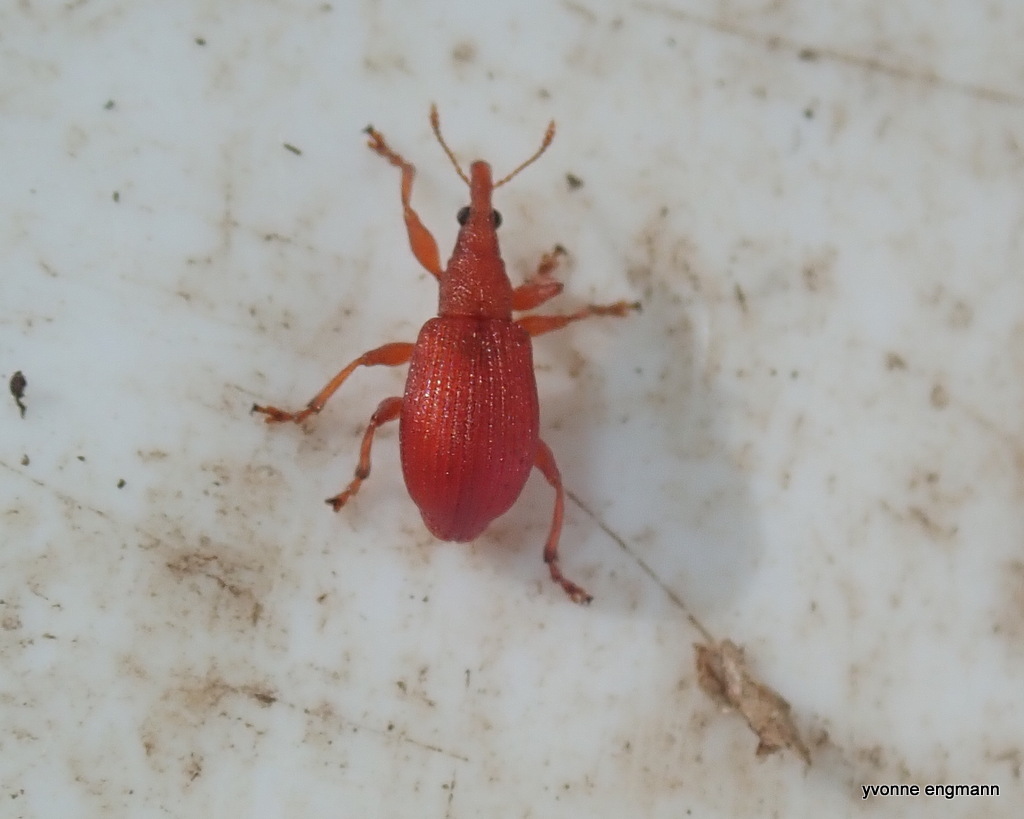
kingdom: Animalia
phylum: Arthropoda
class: Insecta
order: Coleoptera
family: Apionidae
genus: Apion
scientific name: Apion frumentarium
